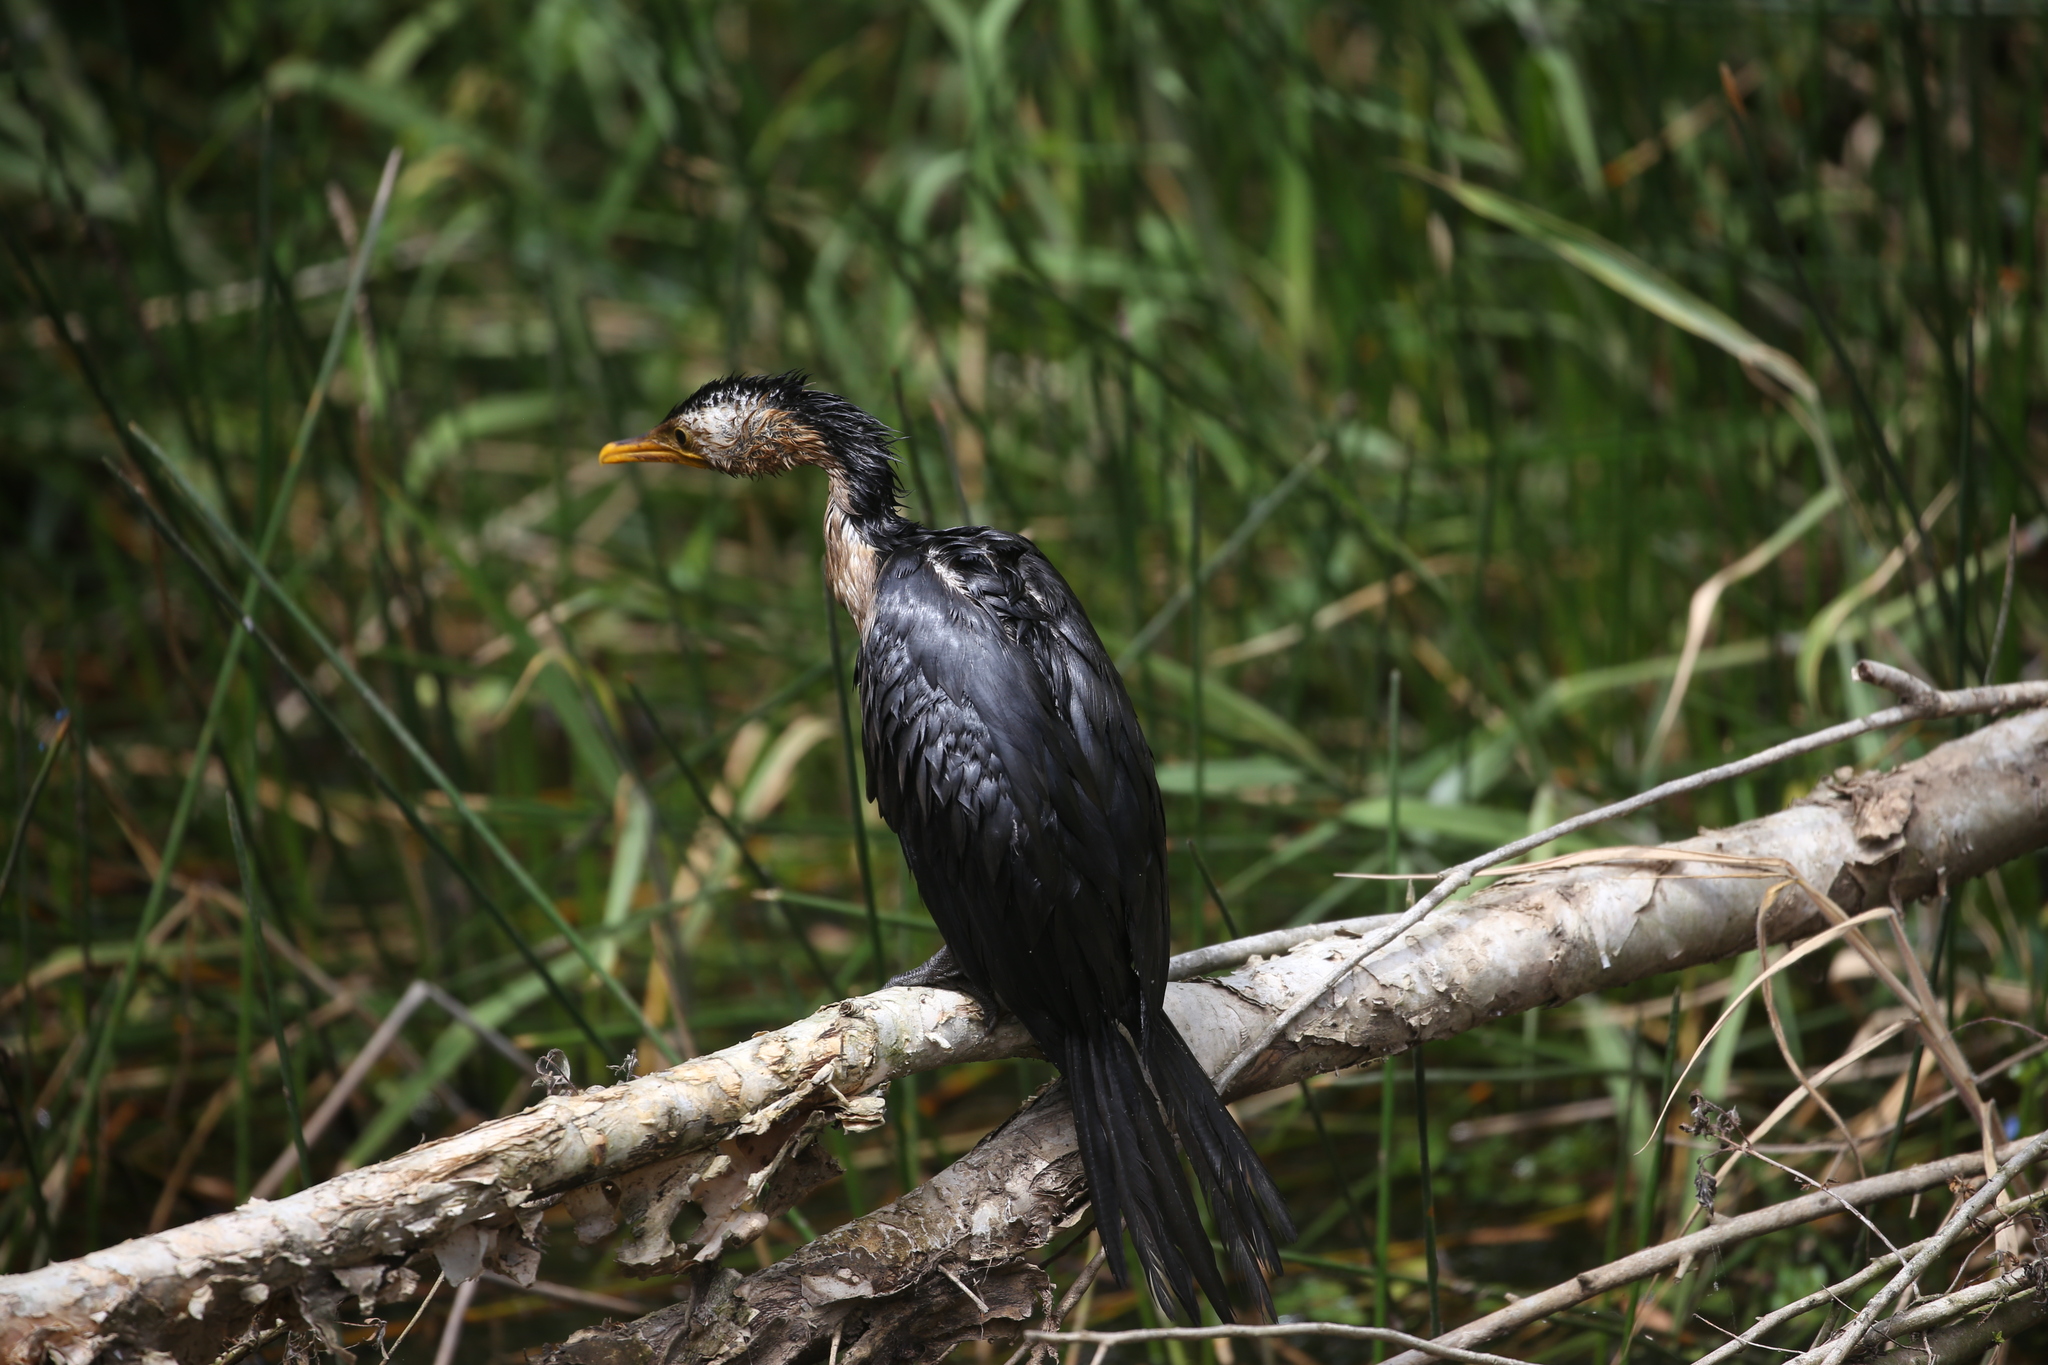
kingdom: Animalia
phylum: Chordata
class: Aves
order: Suliformes
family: Phalacrocoracidae
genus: Microcarbo
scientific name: Microcarbo melanoleucos
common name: Little pied cormorant
